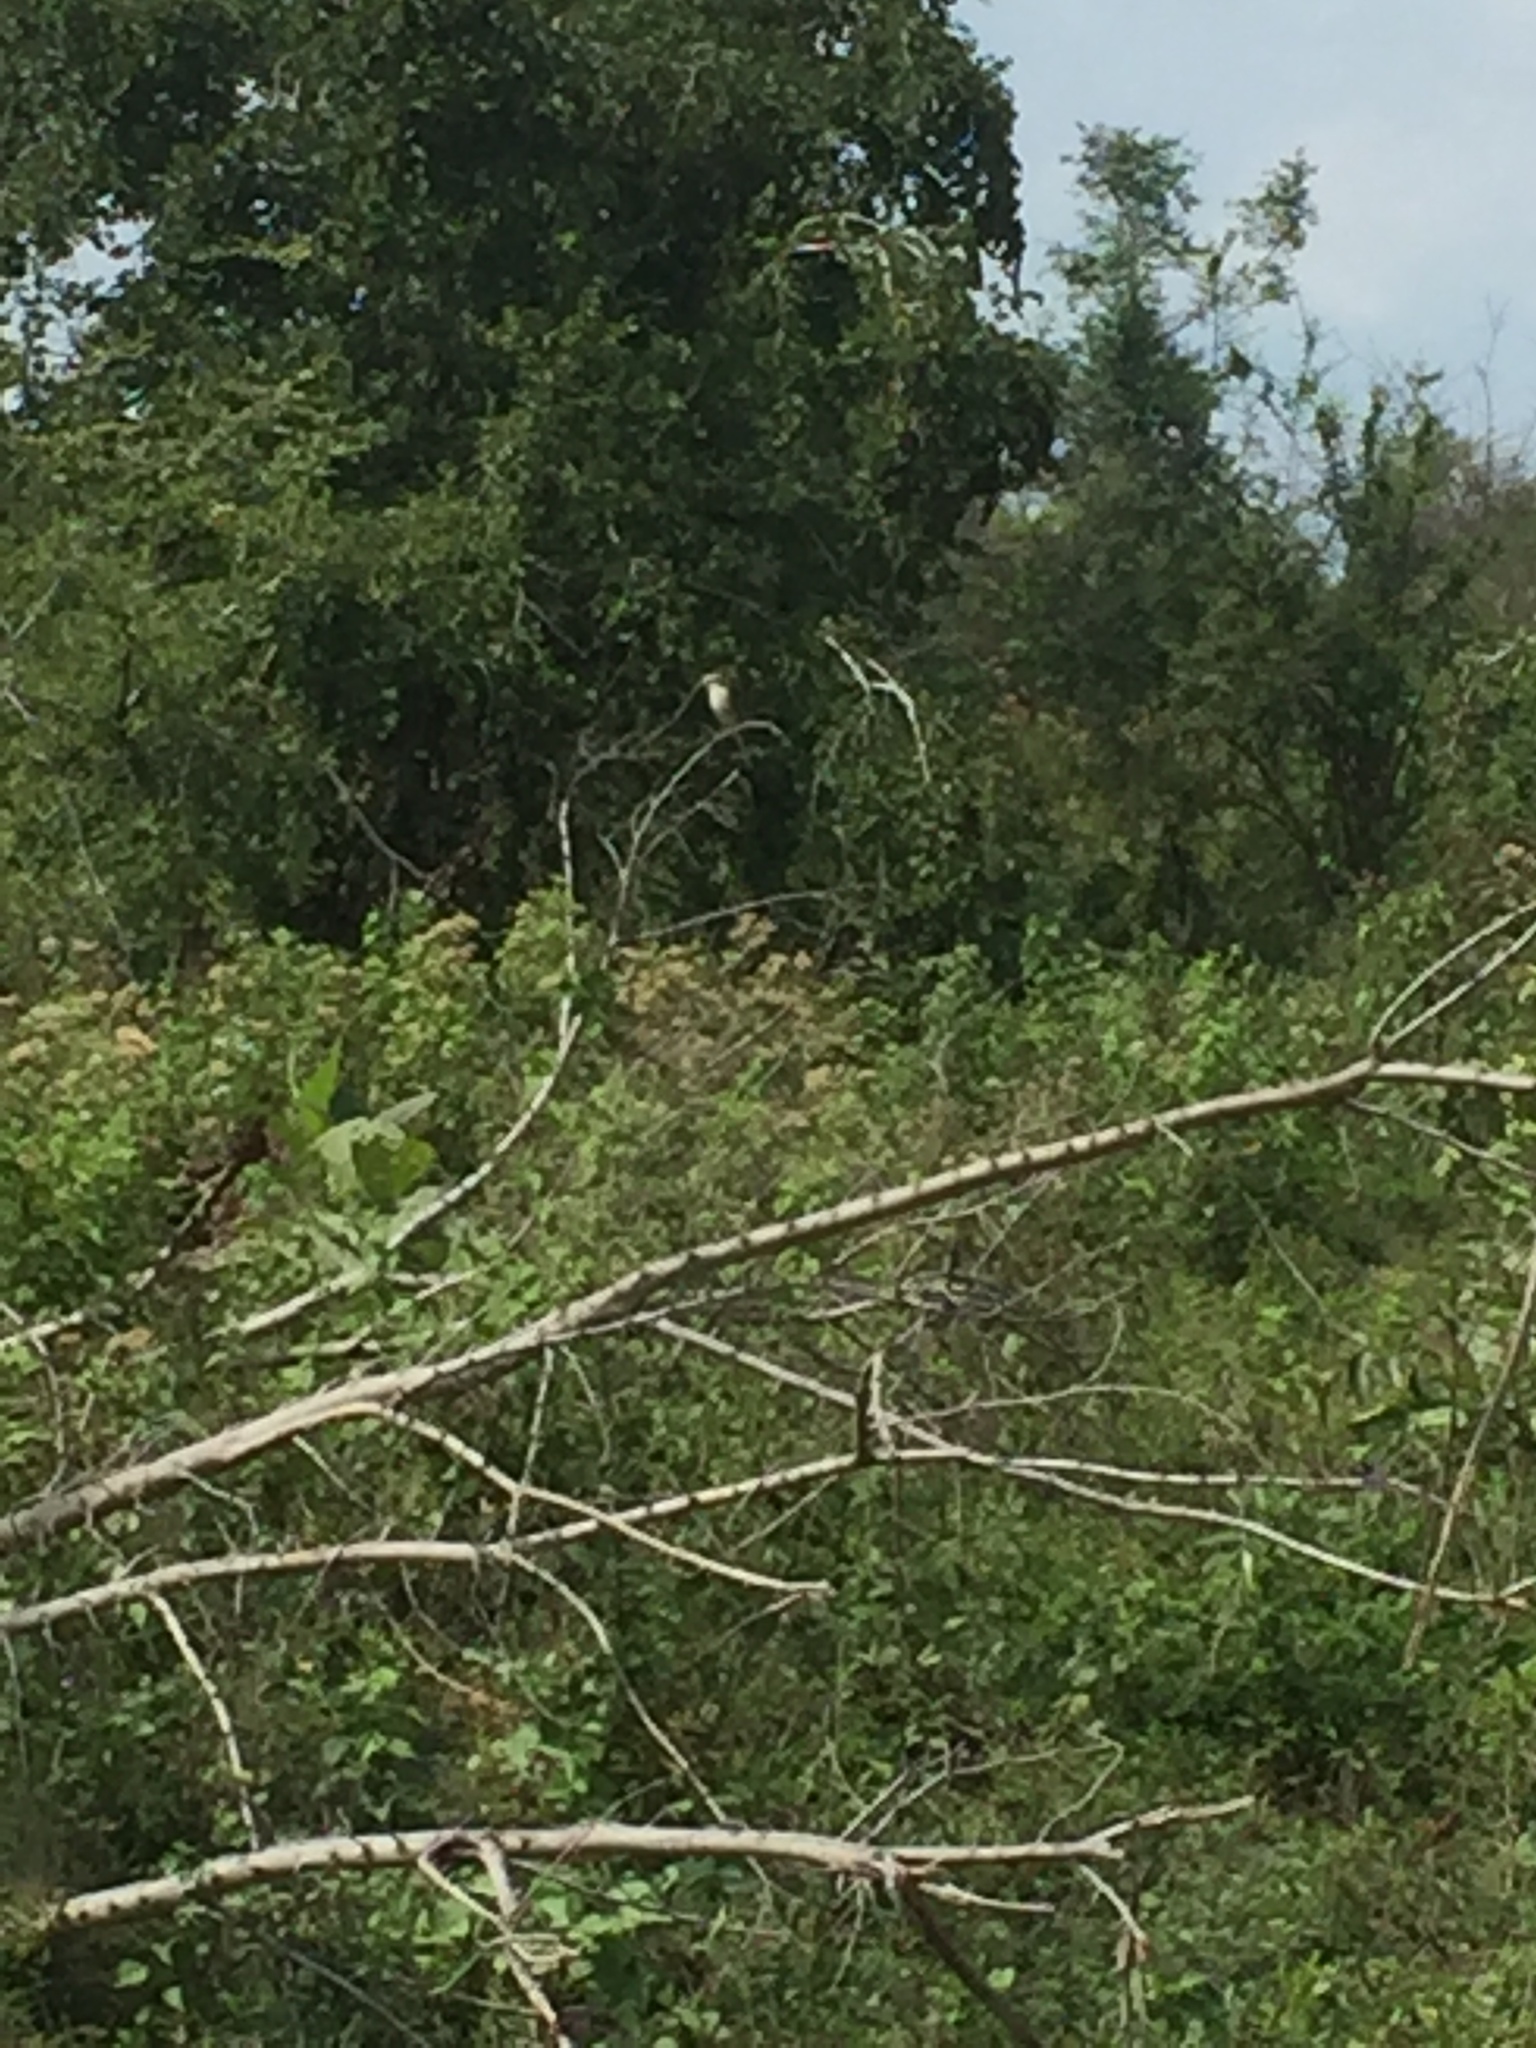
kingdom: Animalia
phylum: Chordata
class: Aves
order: Passeriformes
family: Tephrodornithidae
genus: Tephrodornis
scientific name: Tephrodornis affinis
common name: Sri lanka woodshrike
